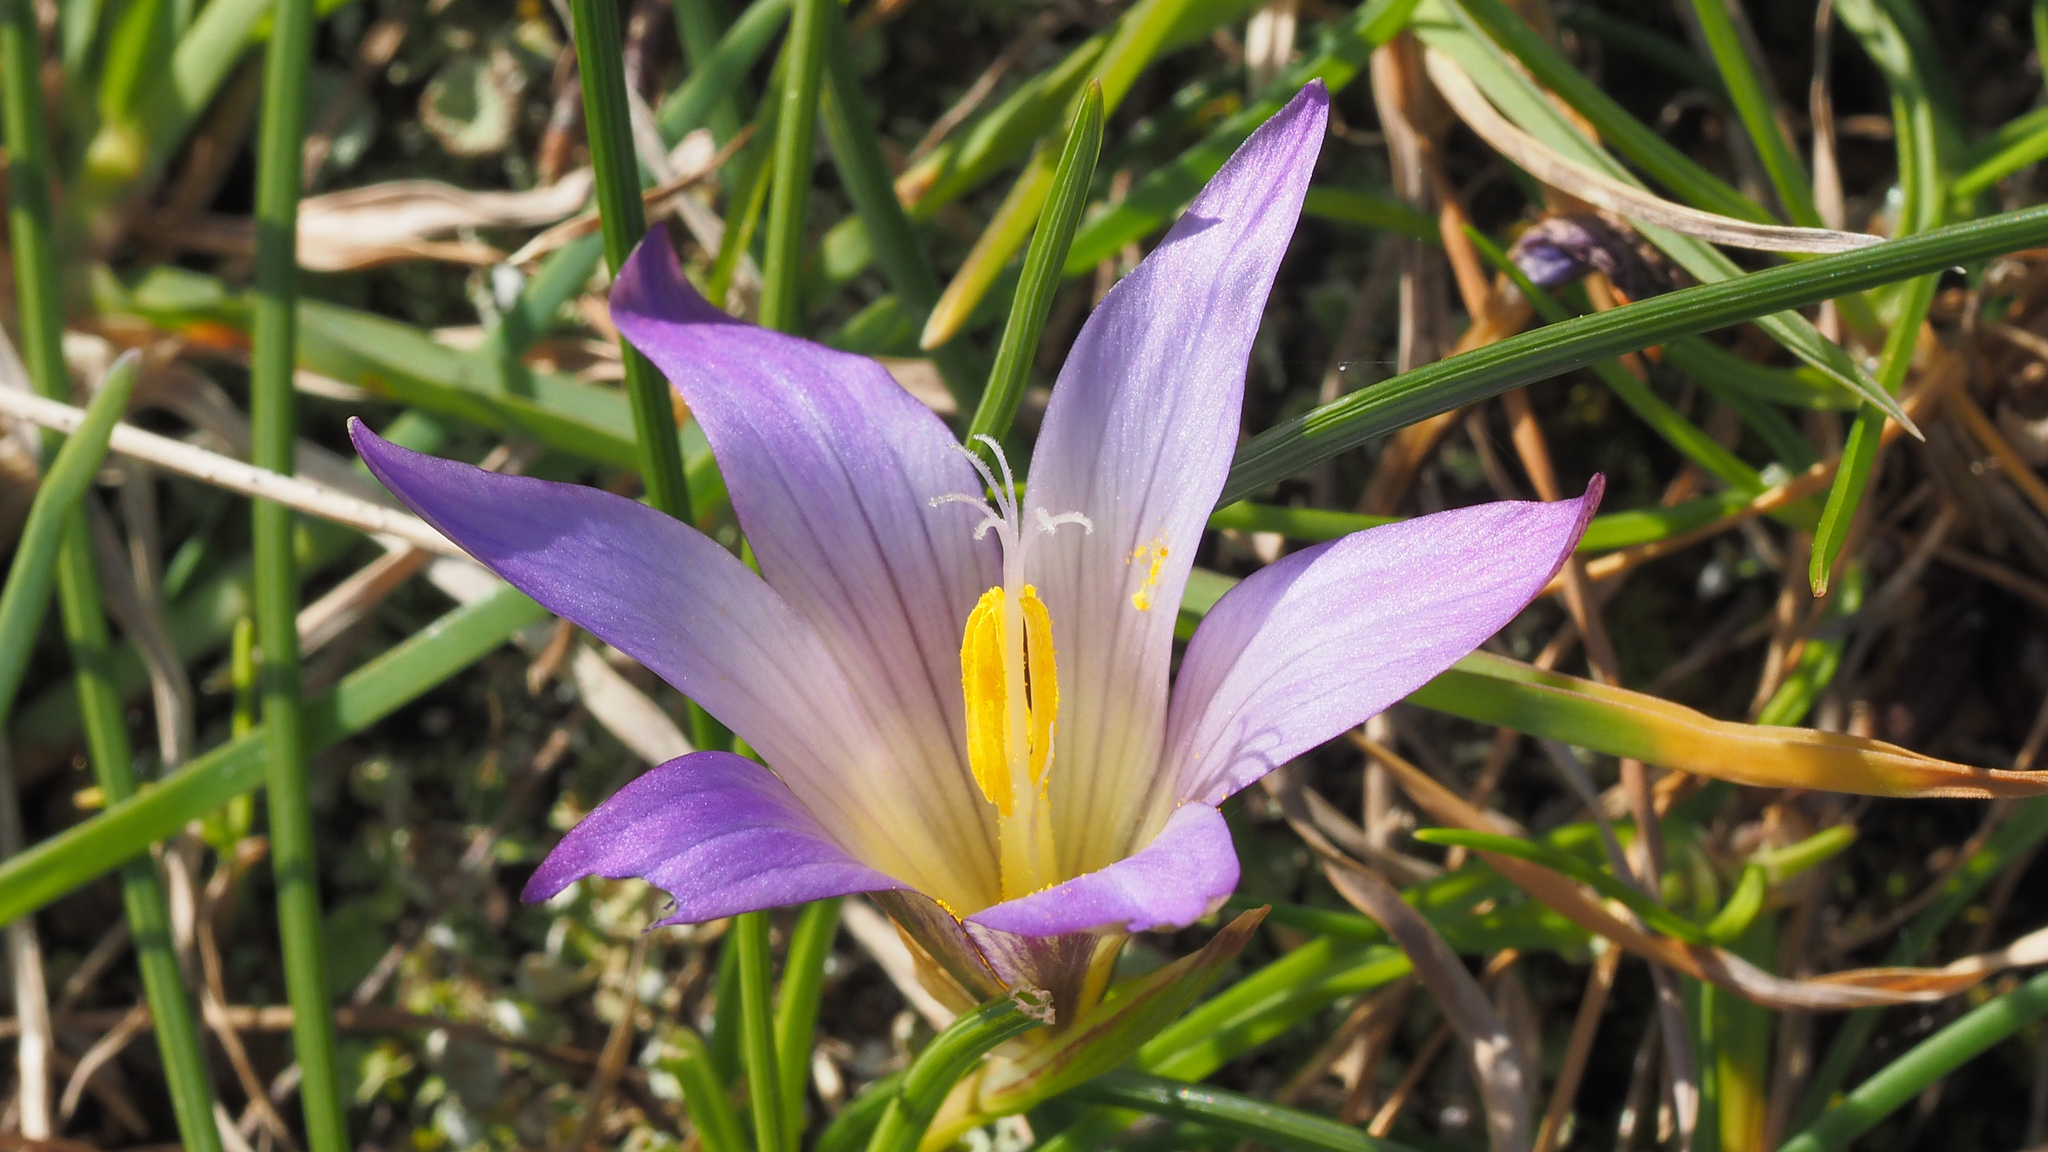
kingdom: Plantae
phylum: Tracheophyta
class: Liliopsida
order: Asparagales
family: Iridaceae
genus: Romulea
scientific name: Romulea bulbocodium
